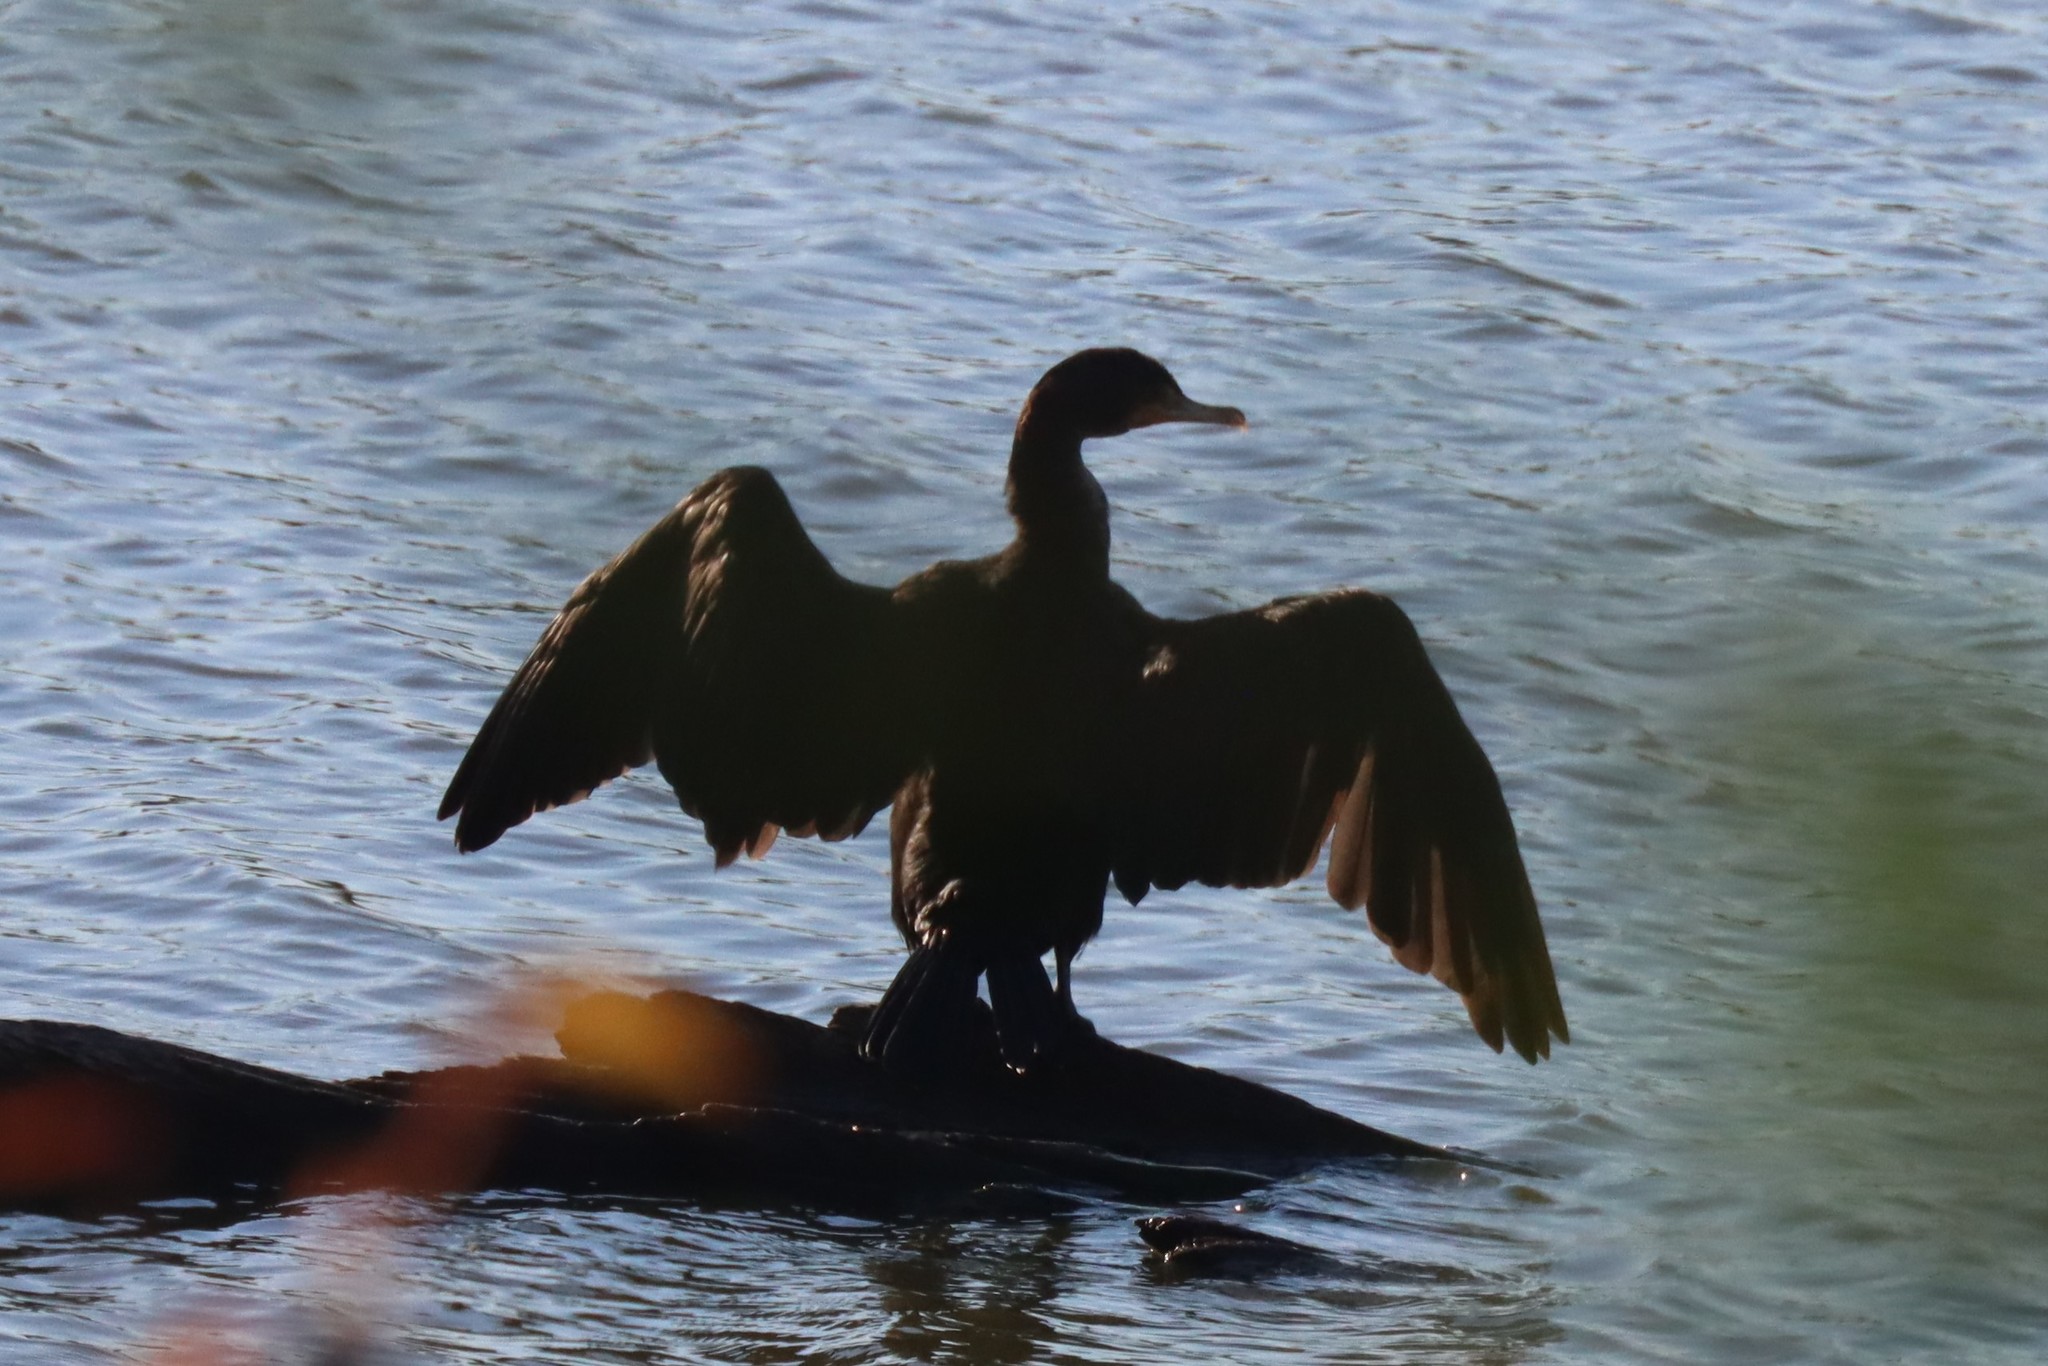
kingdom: Animalia
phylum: Chordata
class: Aves
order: Suliformes
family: Phalacrocoracidae
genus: Phalacrocorax
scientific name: Phalacrocorax auritus
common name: Double-crested cormorant
